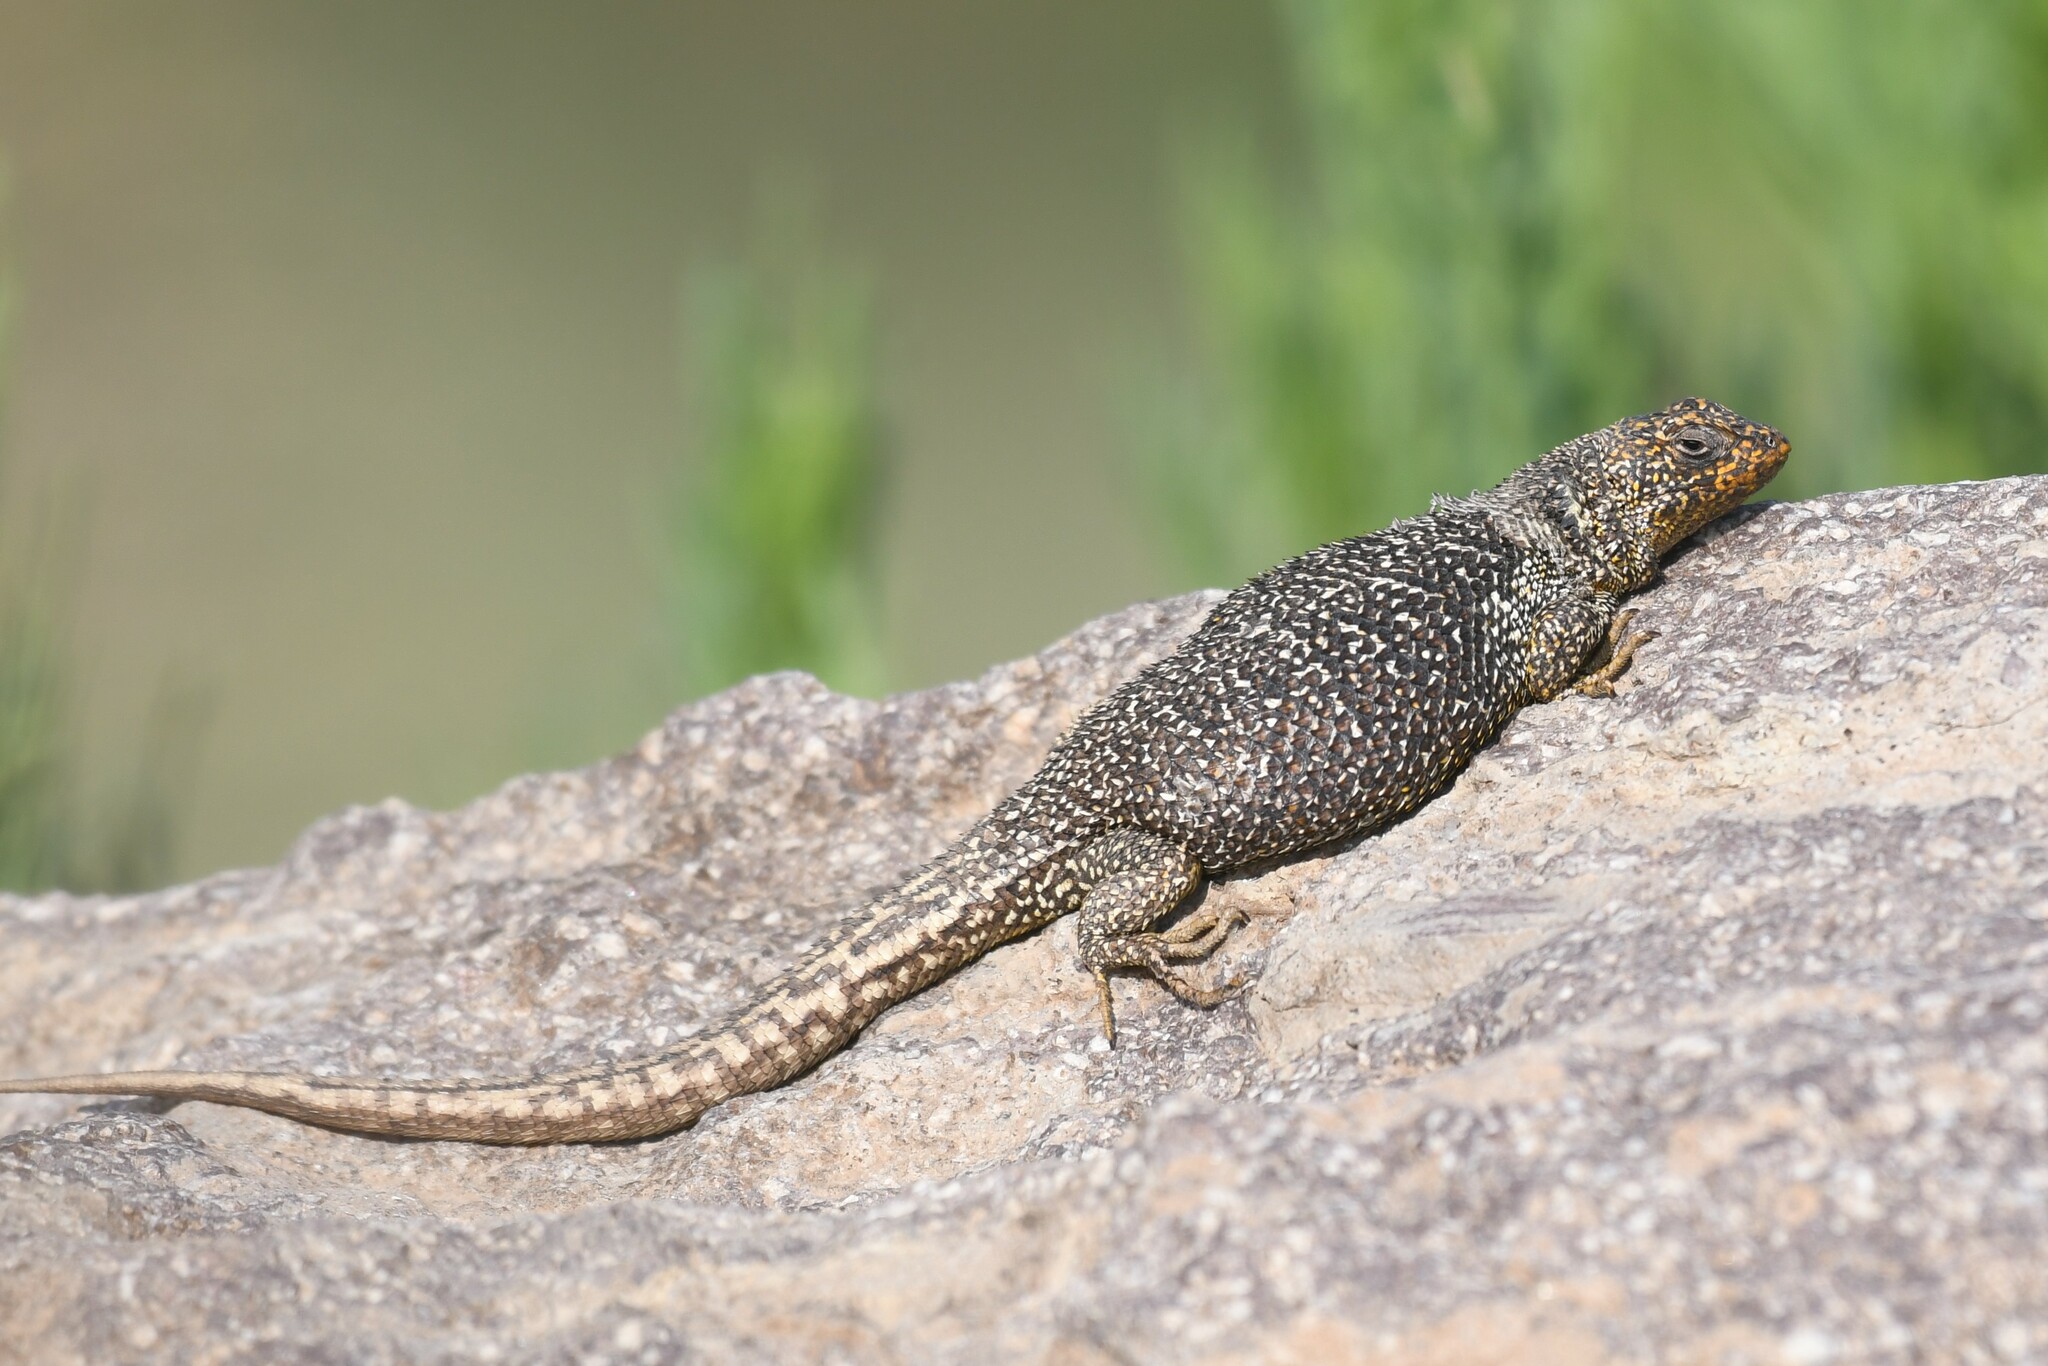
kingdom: Animalia
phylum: Chordata
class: Squamata
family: Liolaemidae
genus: Liolaemus
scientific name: Liolaemus bellii
